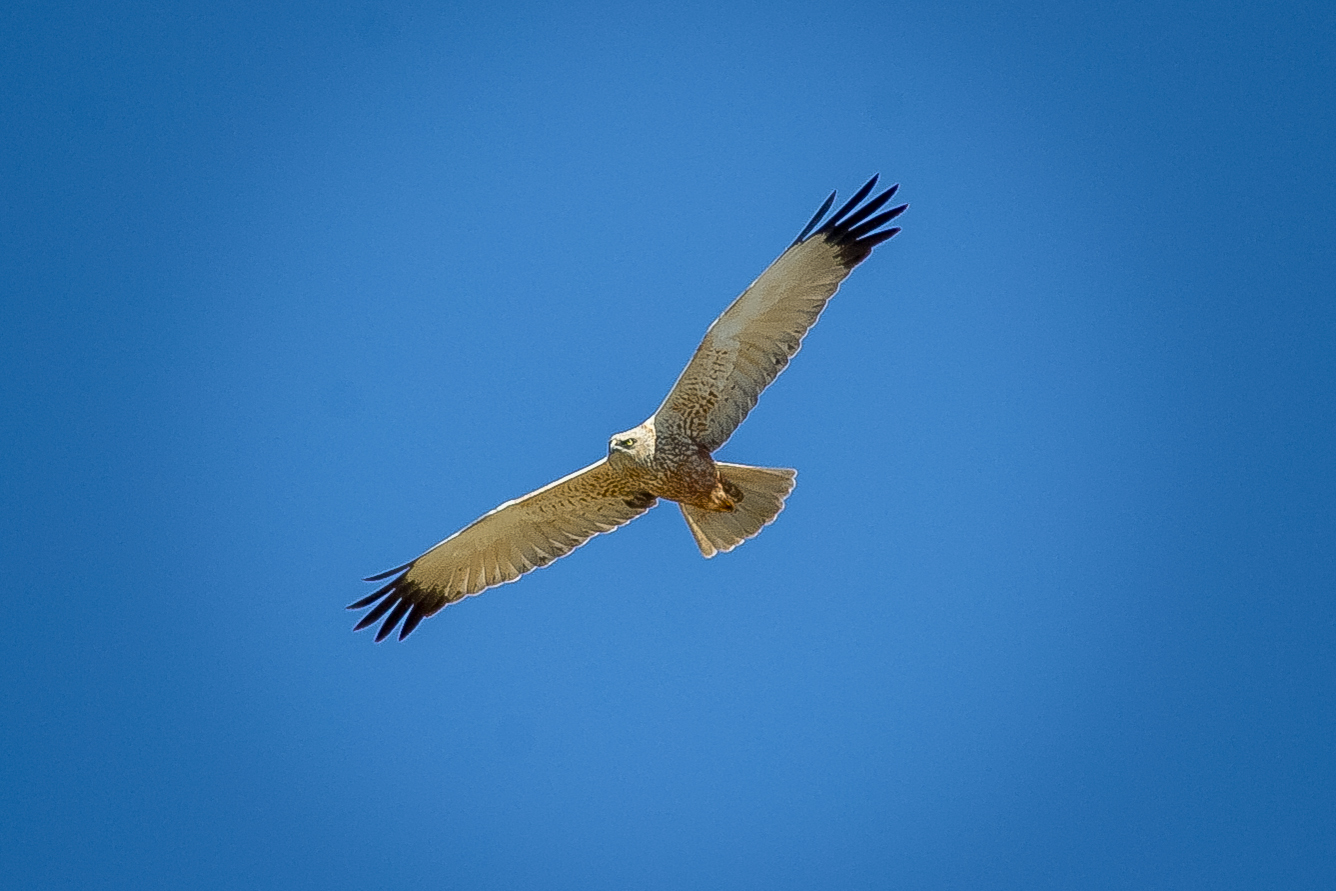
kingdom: Animalia
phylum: Chordata
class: Aves
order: Accipitriformes
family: Accipitridae
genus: Circus
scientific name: Circus aeruginosus
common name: Western marsh harrier
